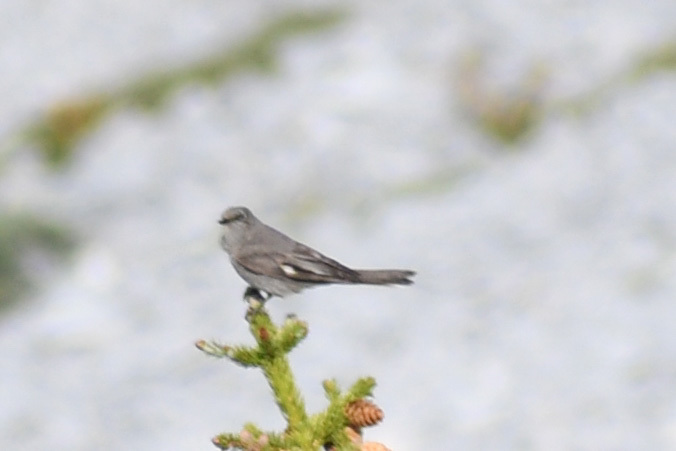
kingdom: Animalia
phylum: Chordata
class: Aves
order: Passeriformes
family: Turdidae
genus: Myadestes
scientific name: Myadestes townsendi
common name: Townsend's solitaire
